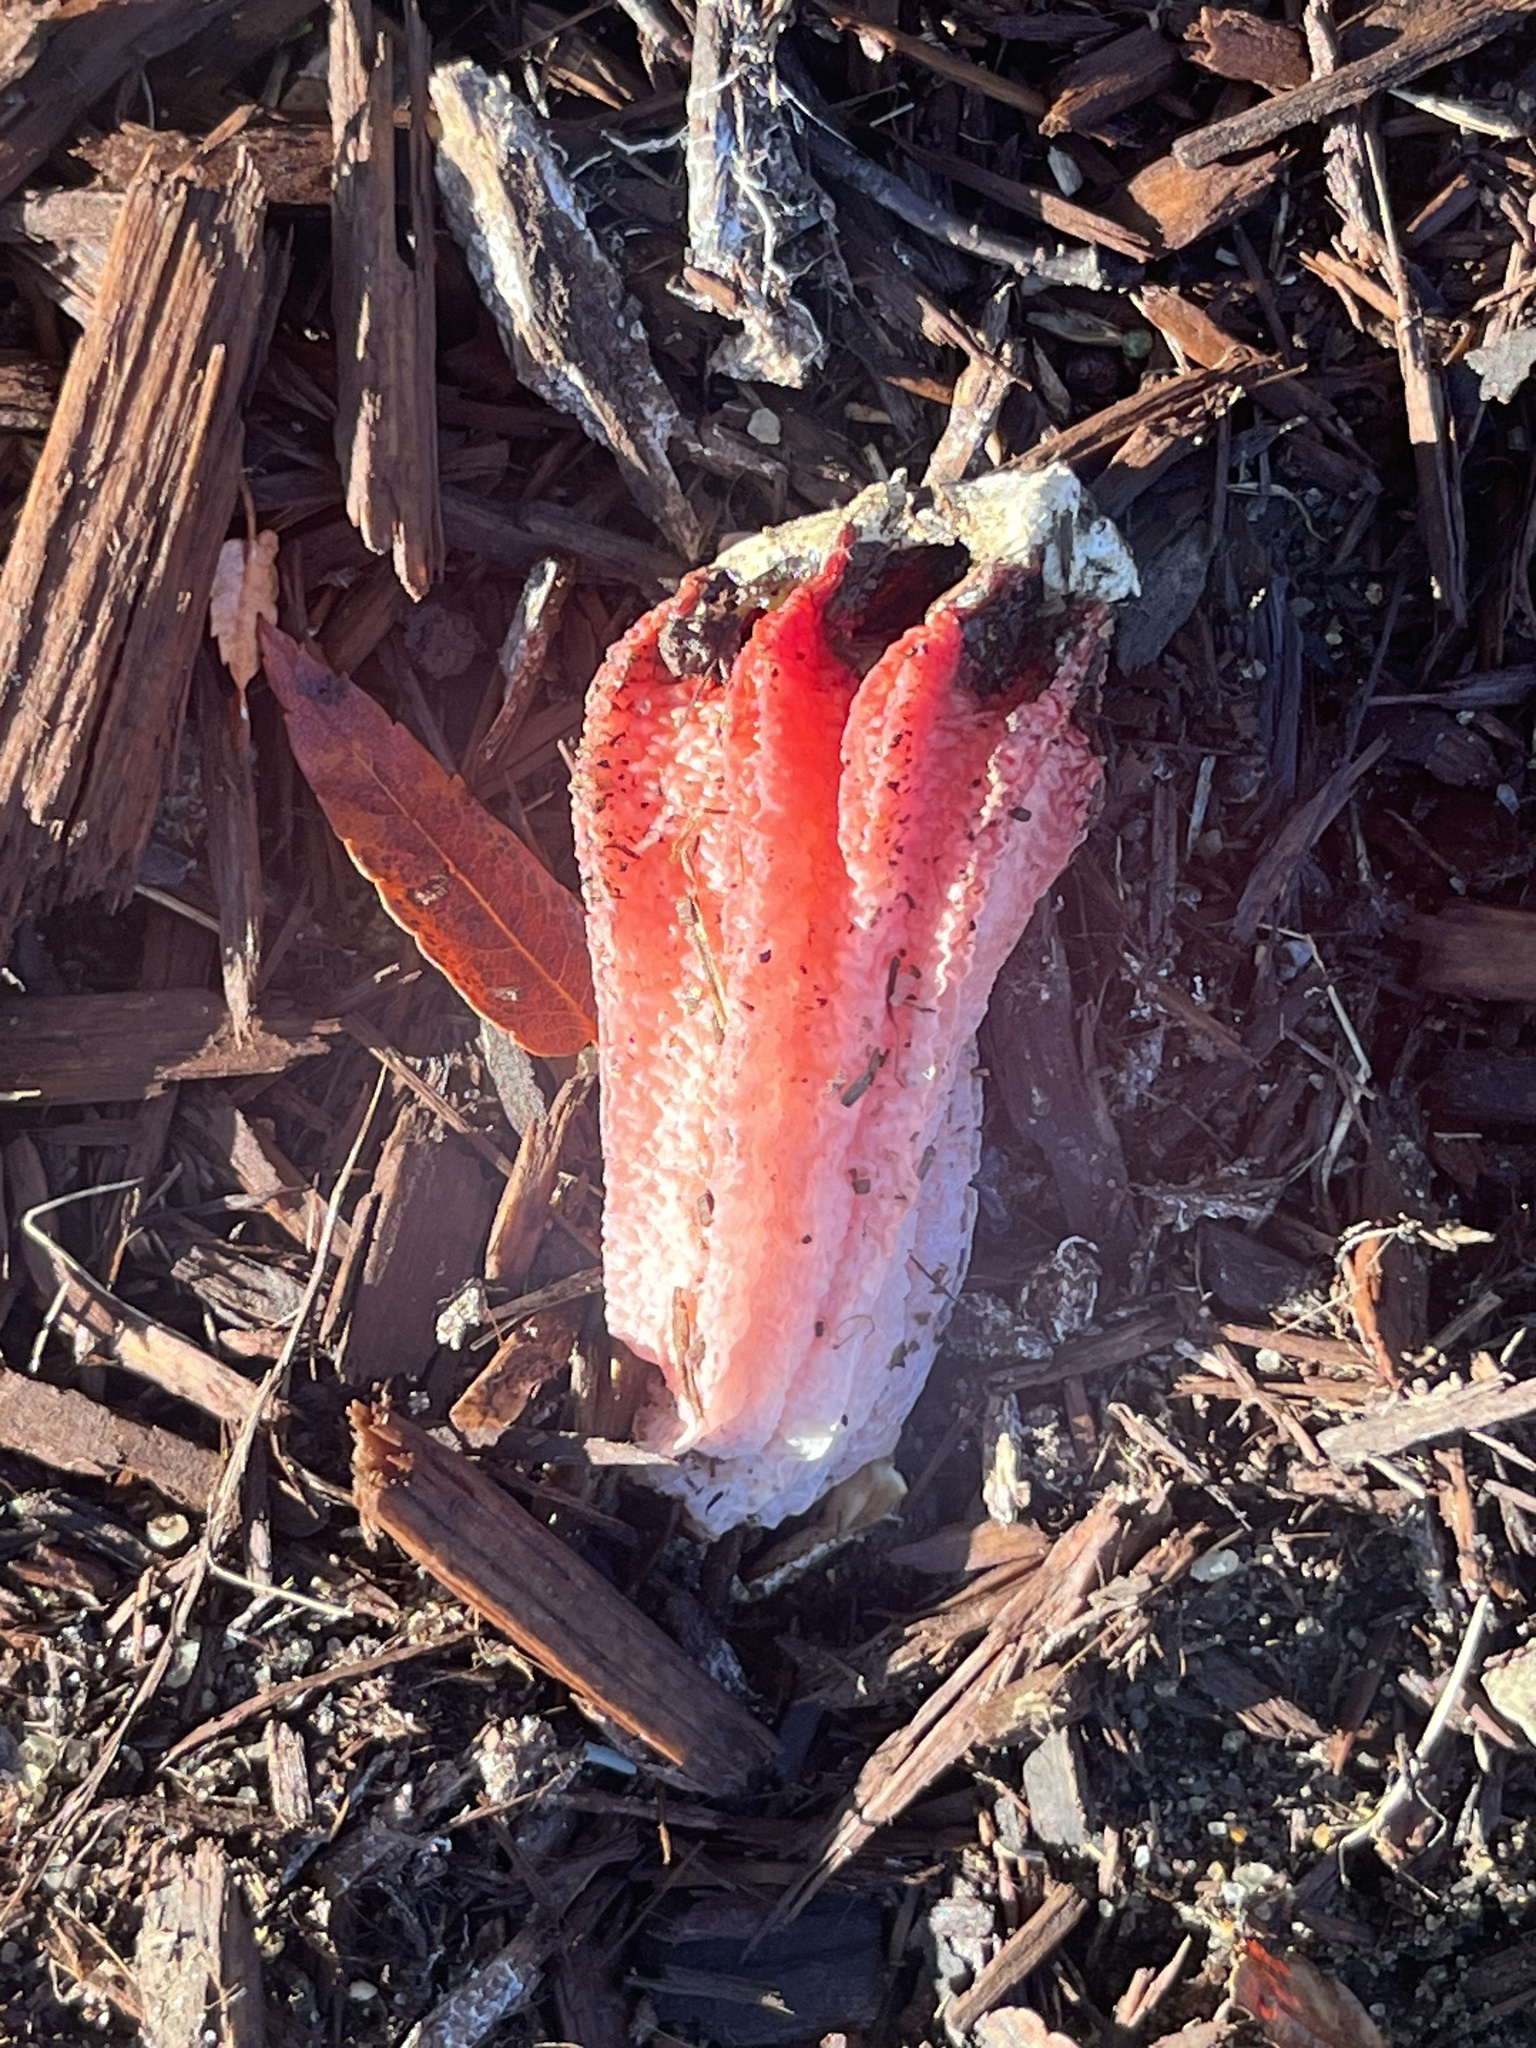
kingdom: Fungi
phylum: Basidiomycota
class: Agaricomycetes
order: Phallales
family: Phallaceae
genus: Lysurus
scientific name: Lysurus mokusin
